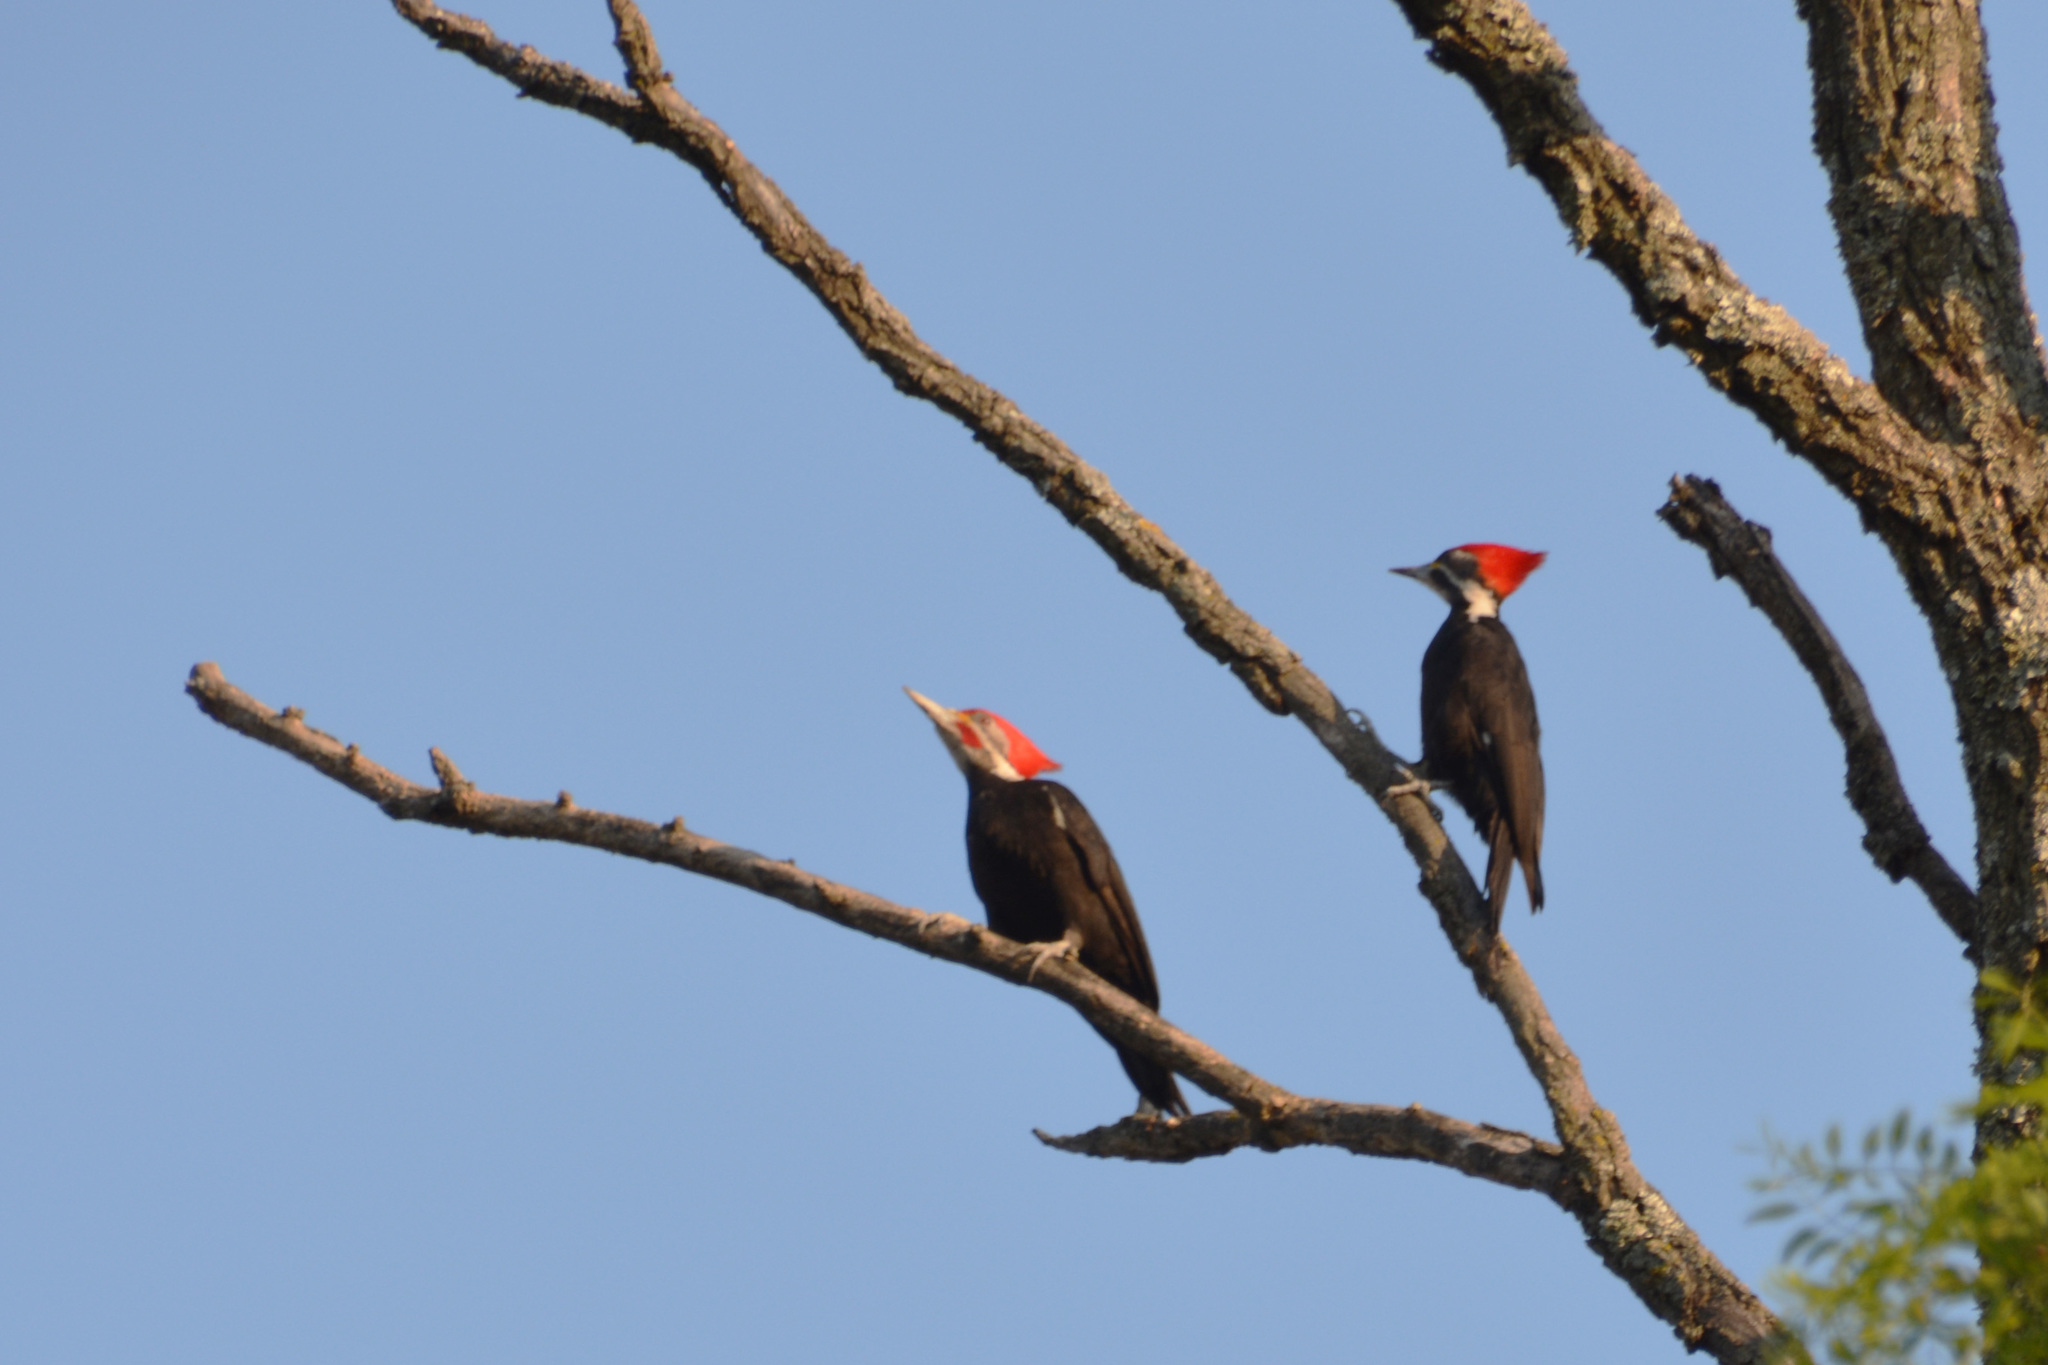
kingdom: Animalia
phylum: Chordata
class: Aves
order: Piciformes
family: Picidae
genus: Dryocopus
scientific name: Dryocopus schulzii
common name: Black-bodied woodpecker
